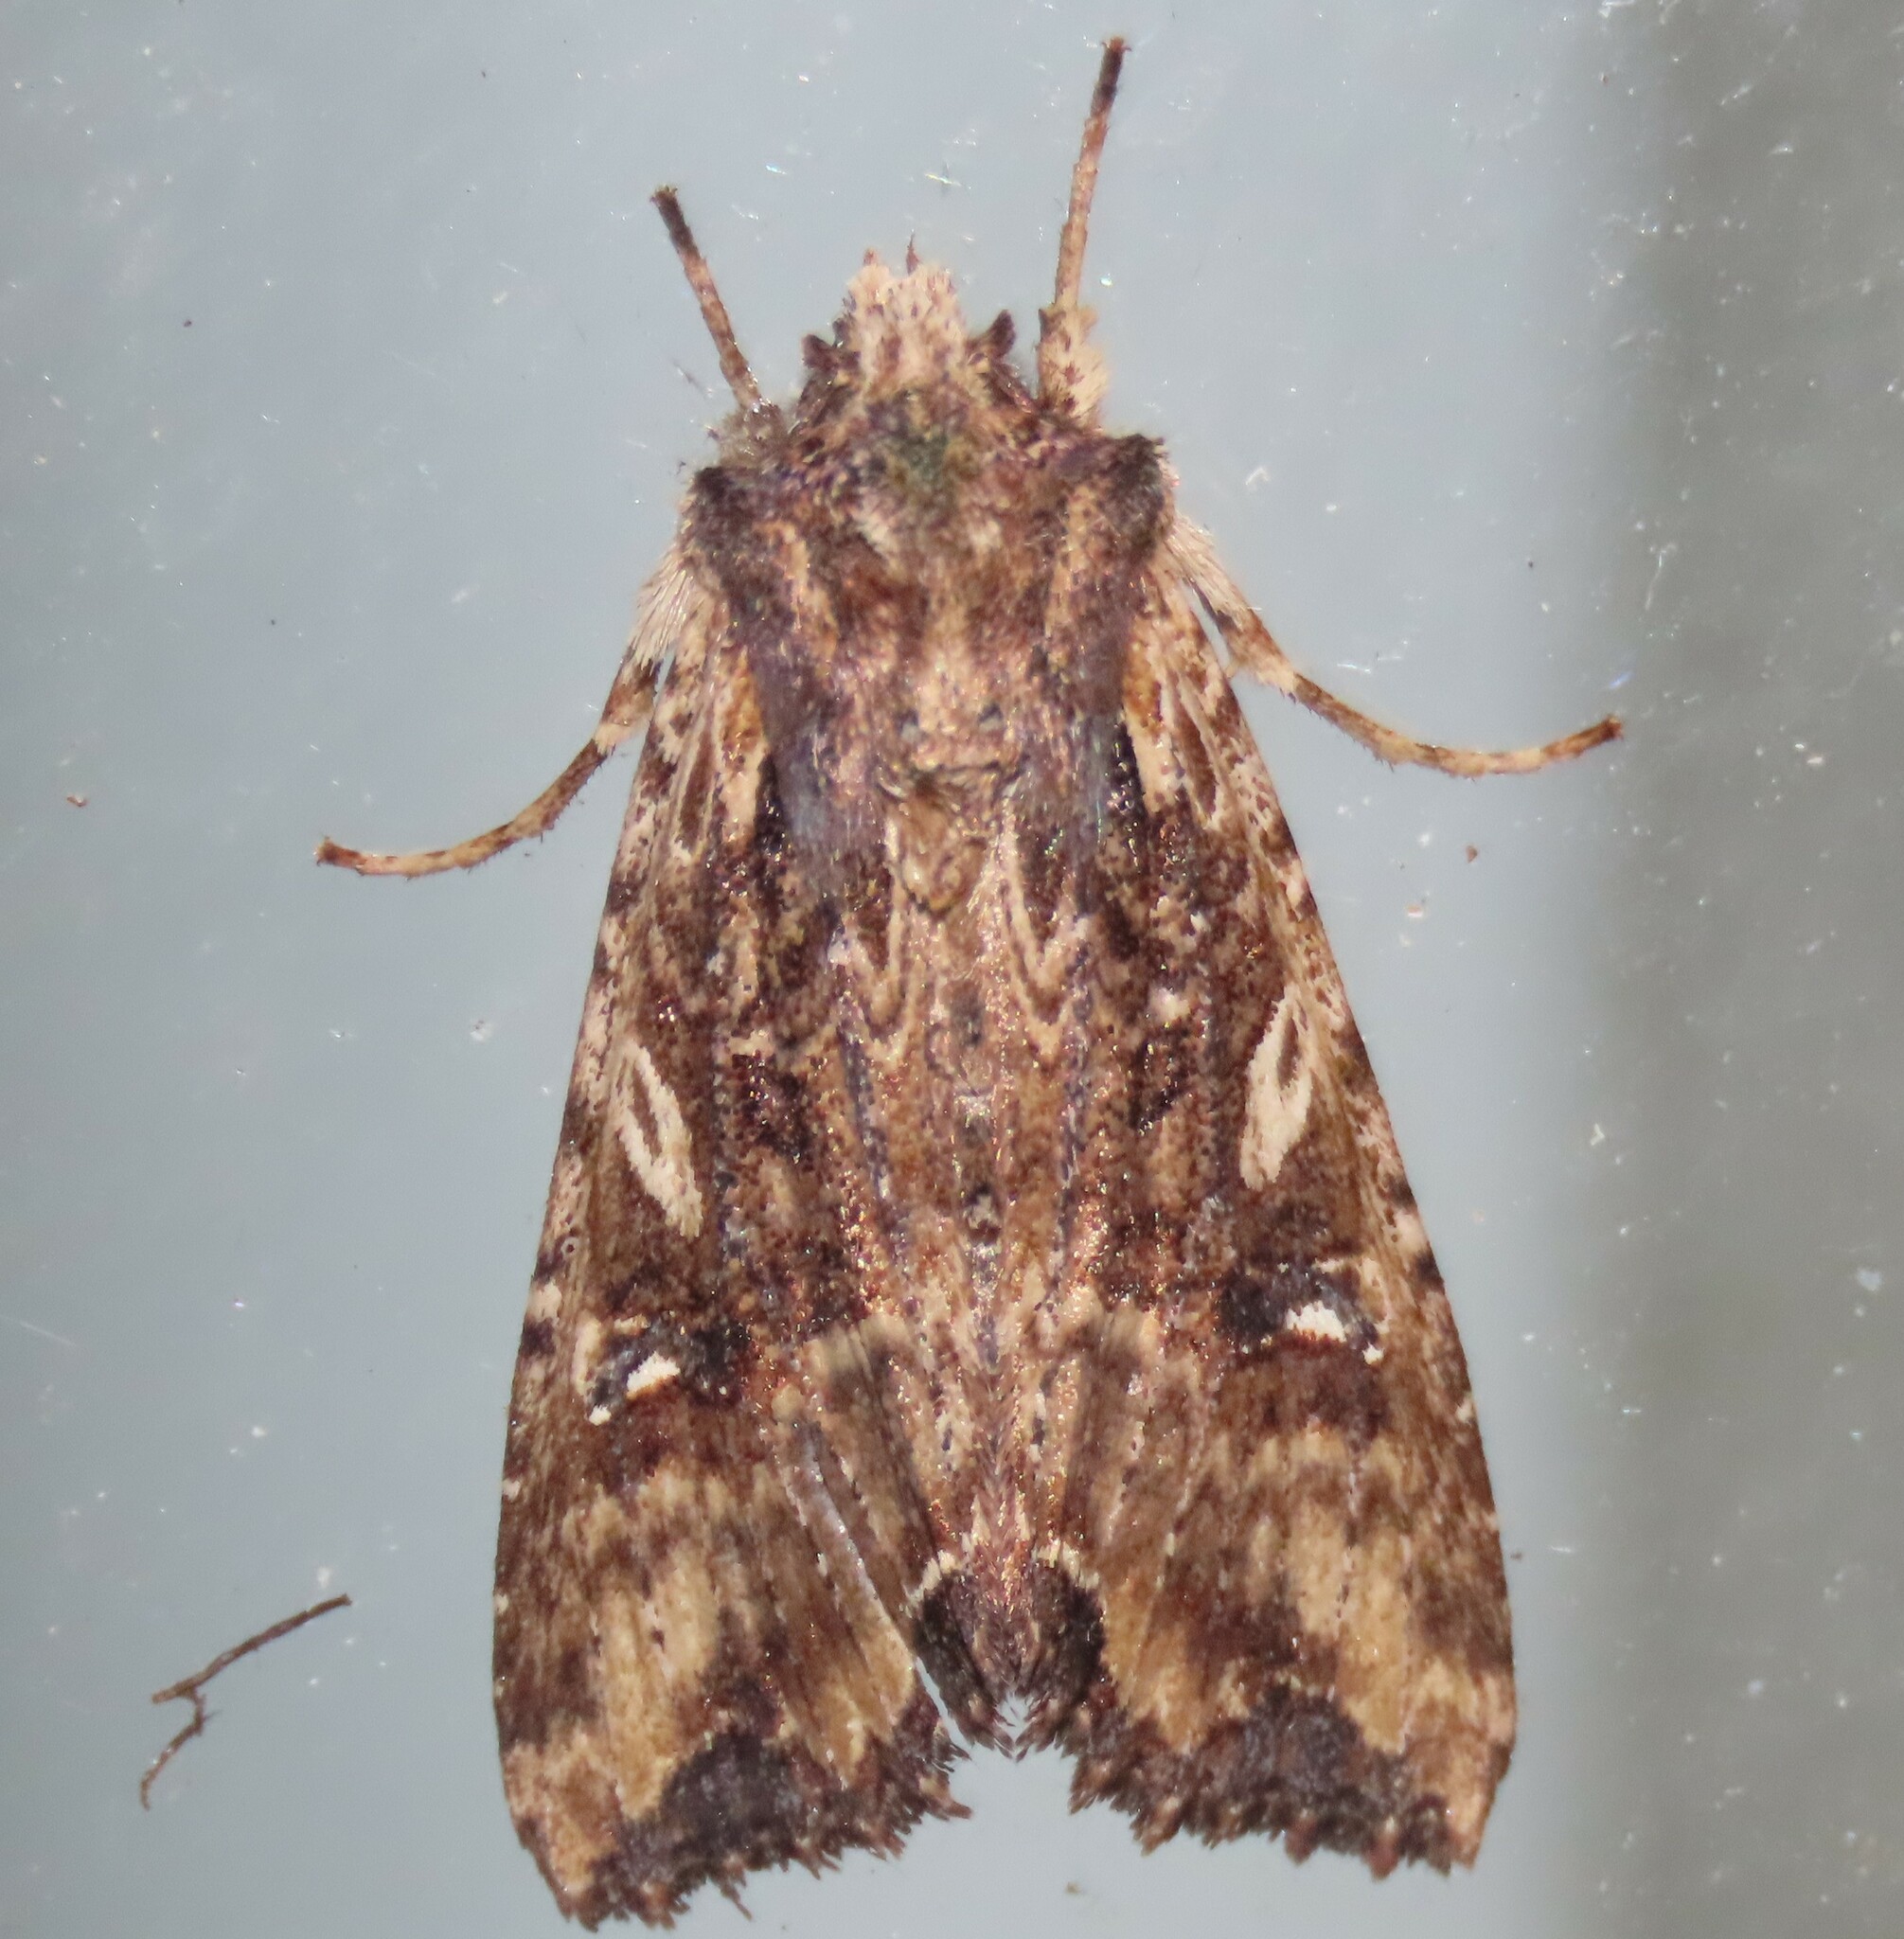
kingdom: Animalia
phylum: Arthropoda
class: Insecta
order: Lepidoptera
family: Noctuidae
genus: Meterana
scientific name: Meterana stipata
